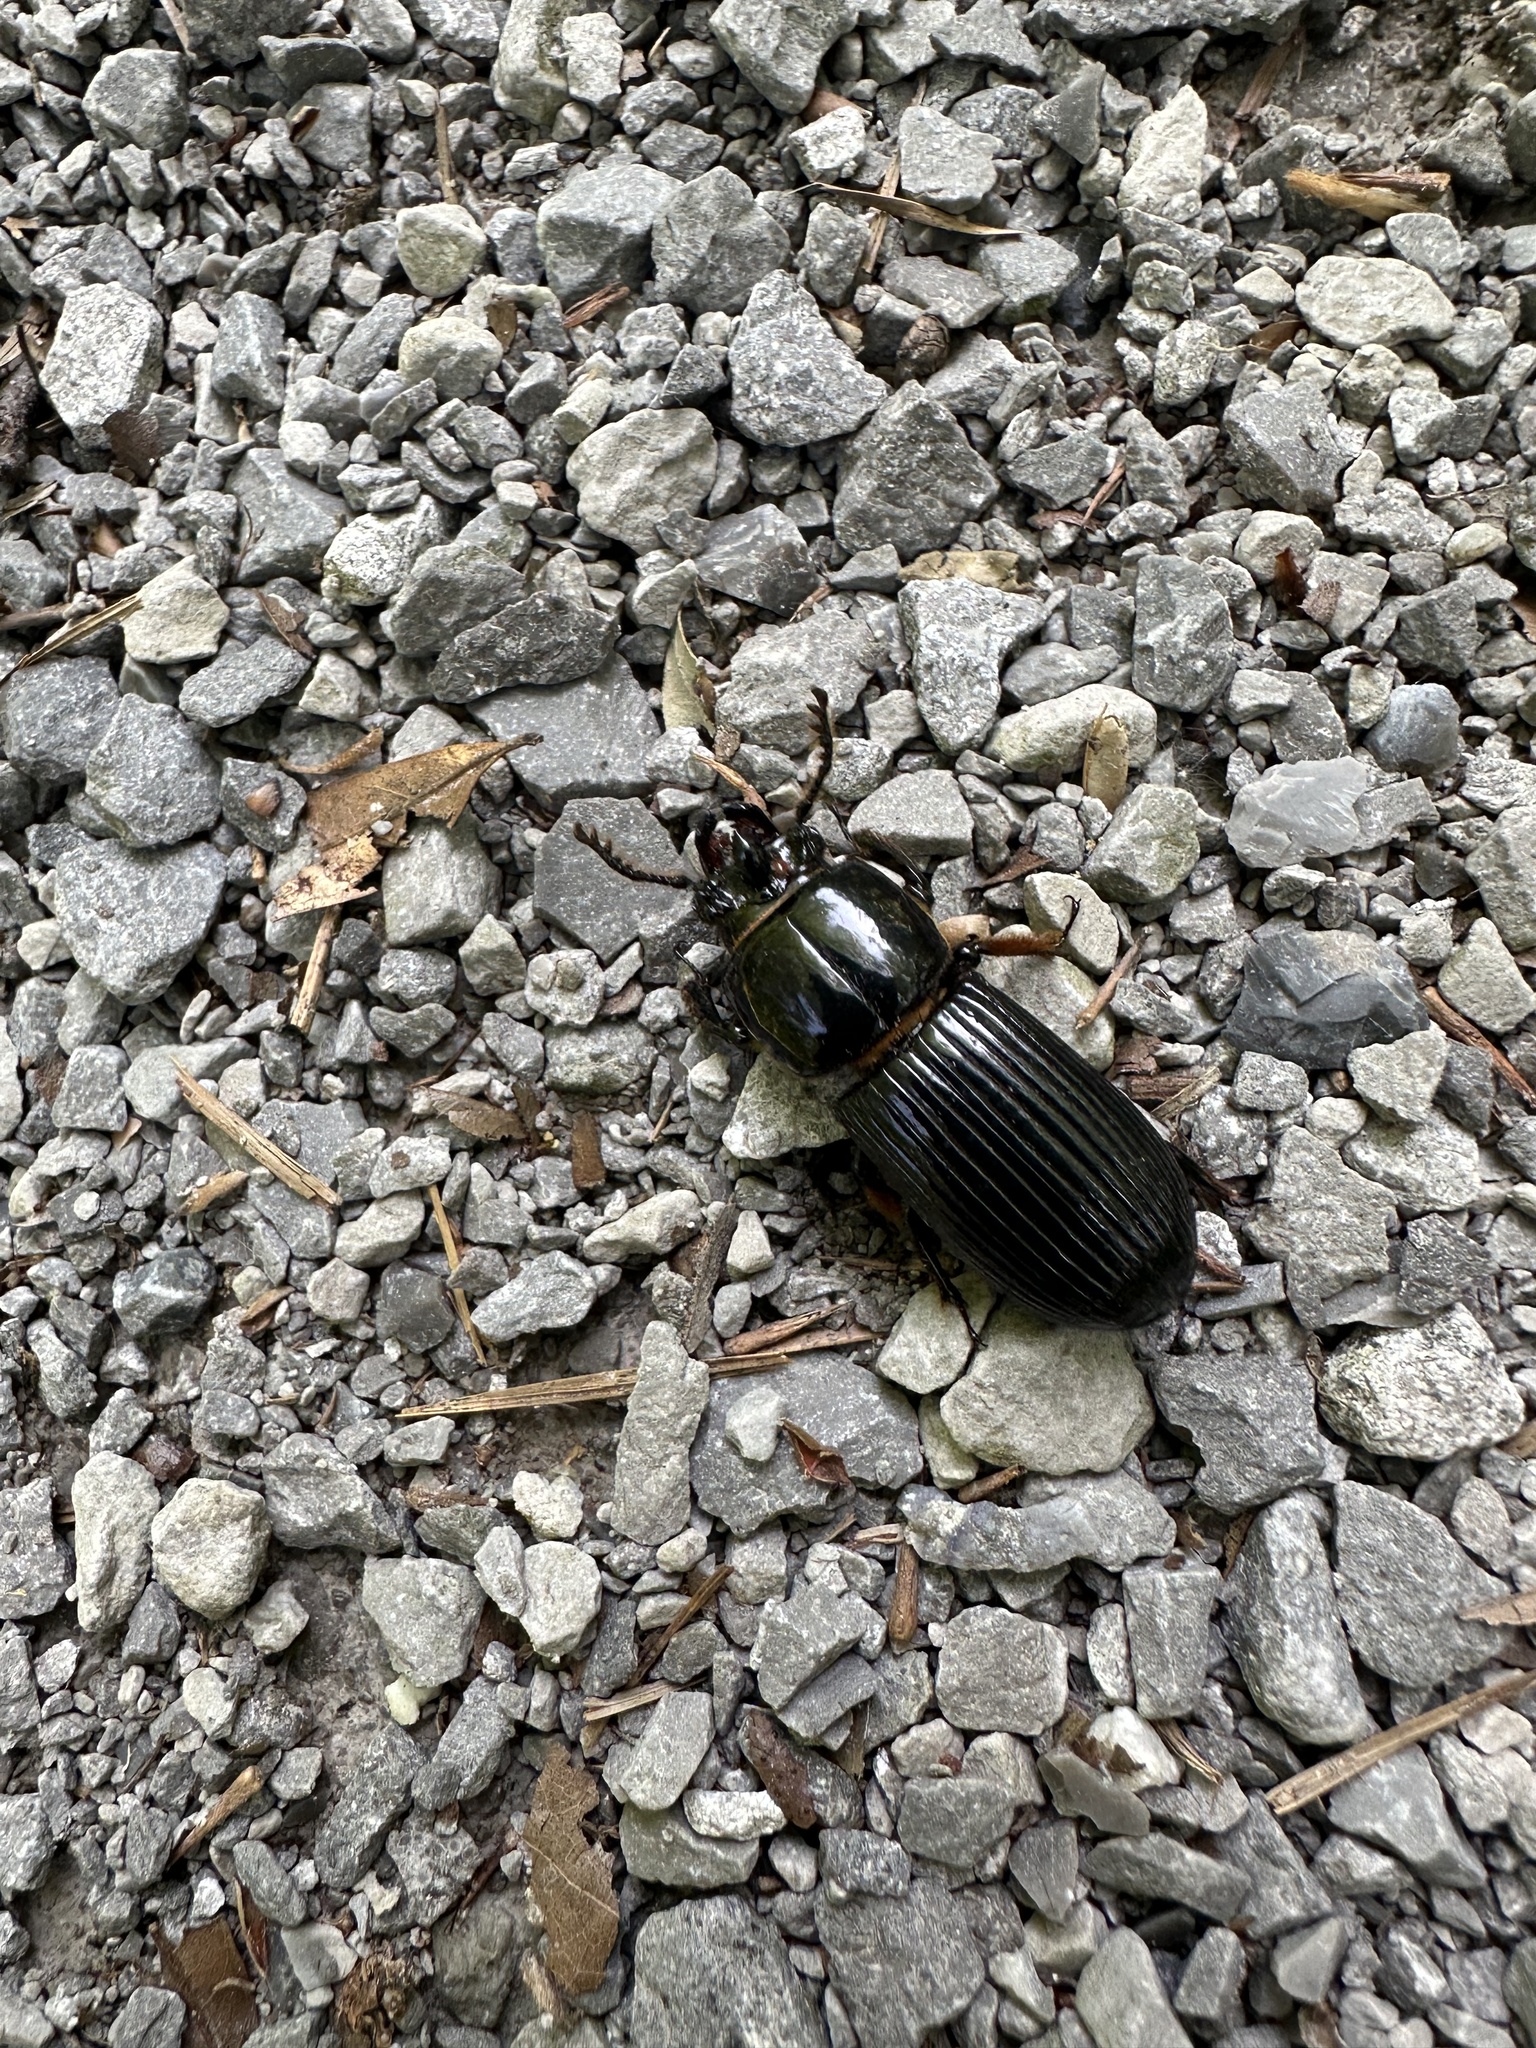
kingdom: Animalia
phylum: Arthropoda
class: Insecta
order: Coleoptera
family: Passalidae
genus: Odontotaenius
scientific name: Odontotaenius disjunctus
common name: Patent leather beetle
